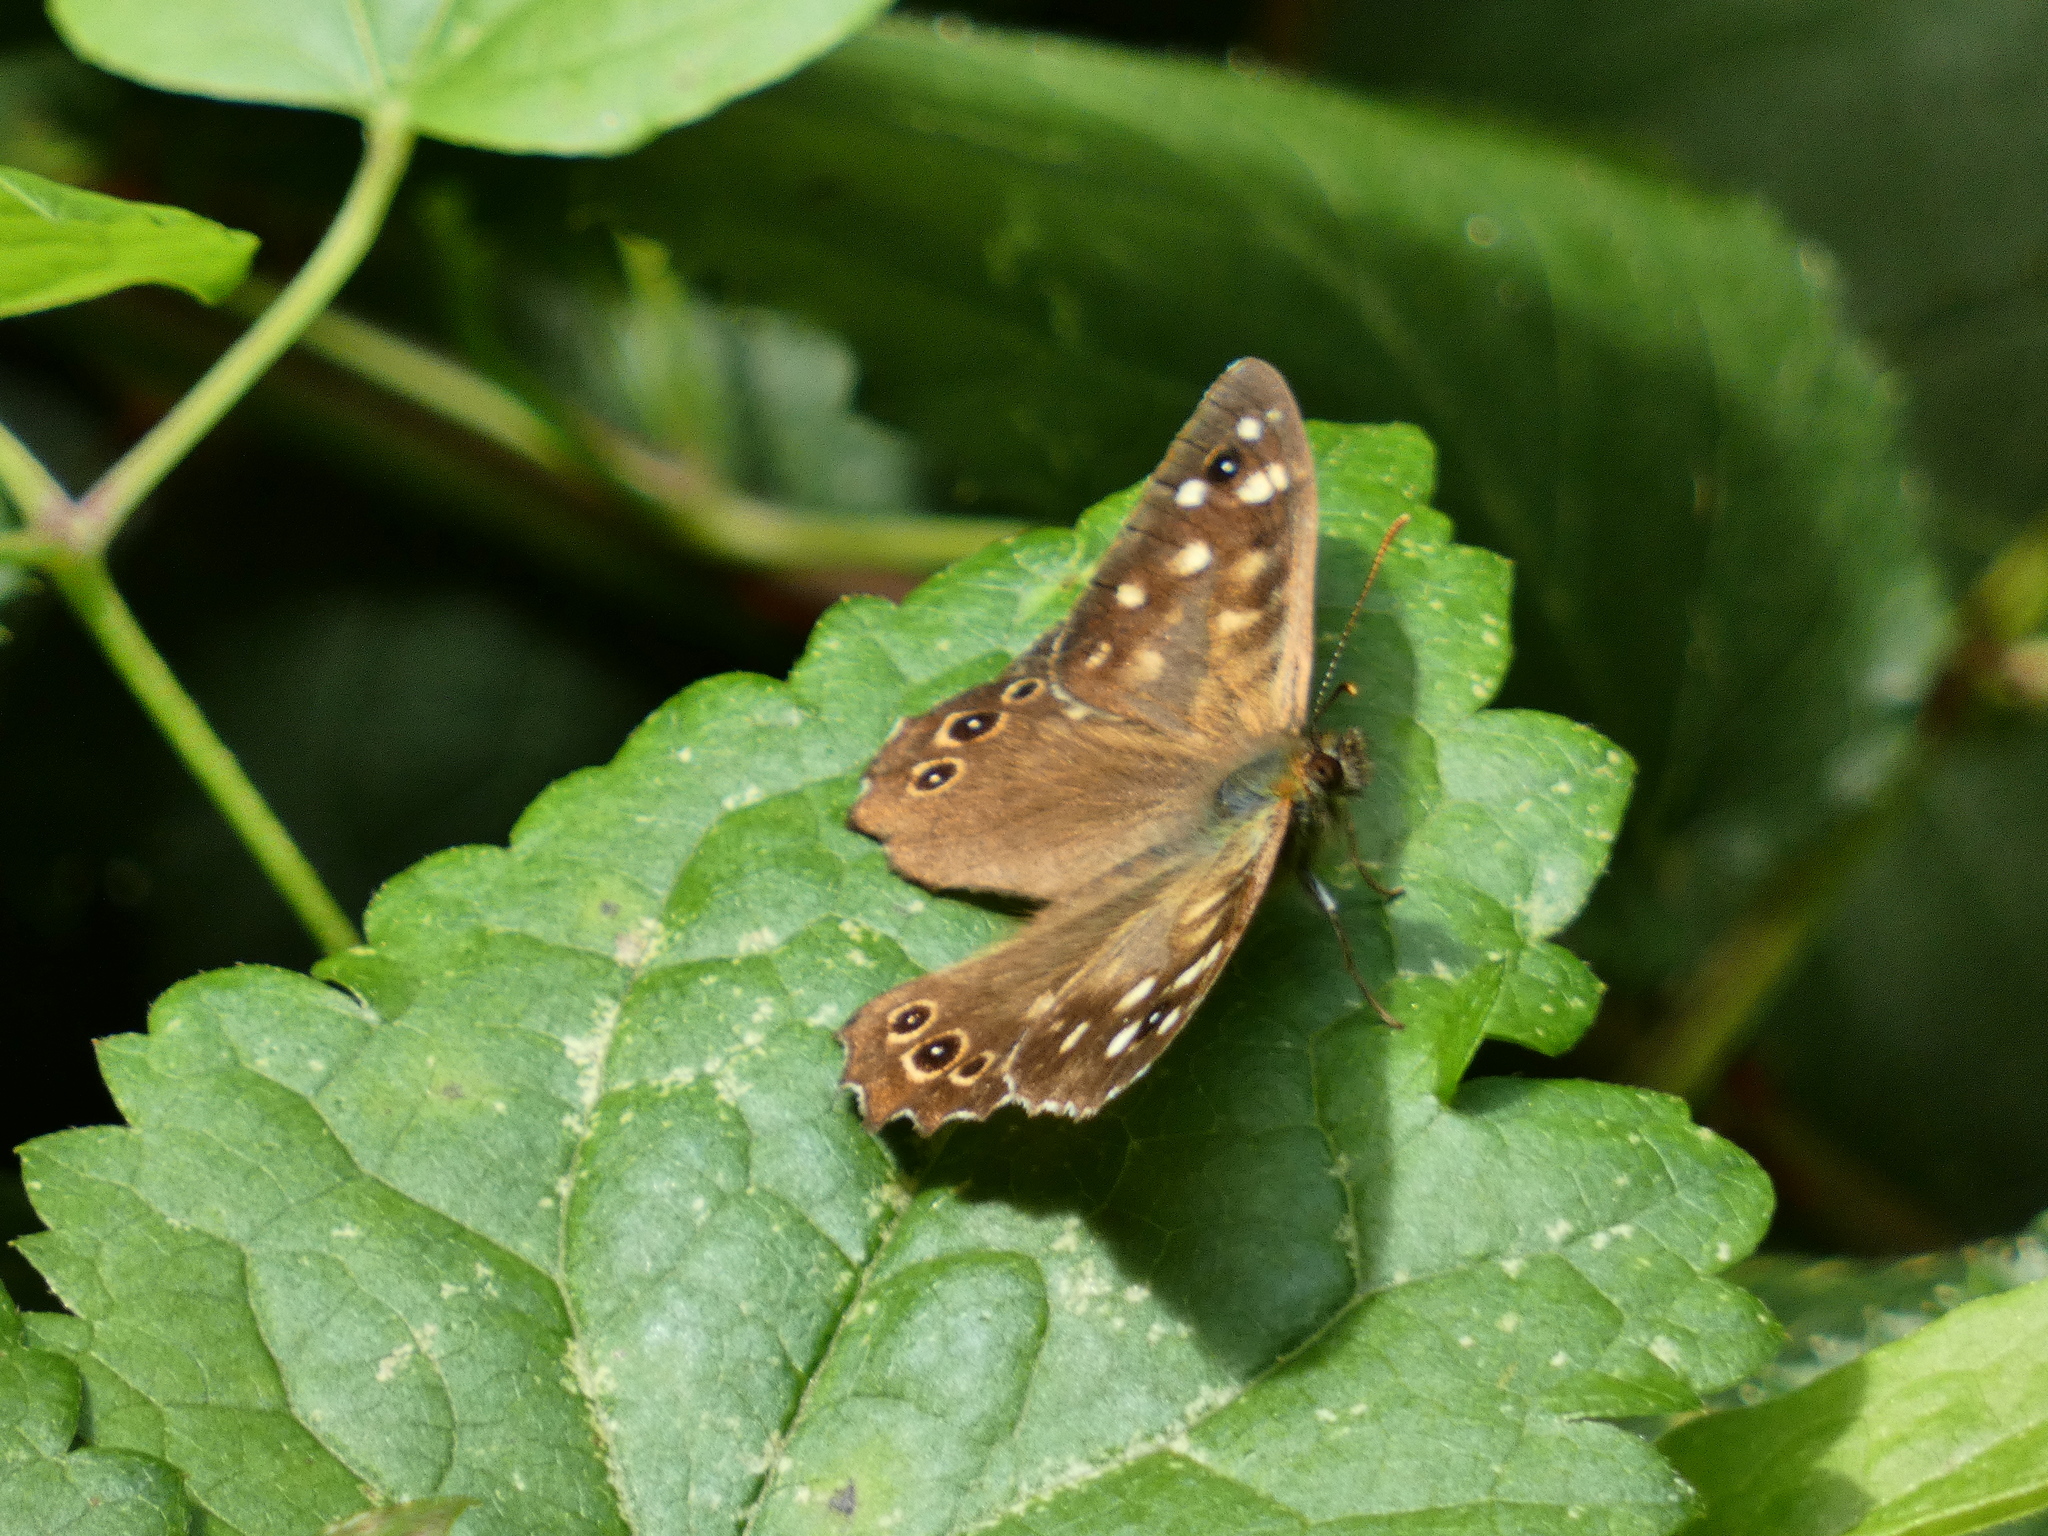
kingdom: Animalia
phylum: Arthropoda
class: Insecta
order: Lepidoptera
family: Nymphalidae
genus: Pararge
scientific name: Pararge aegeria
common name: Speckled wood
